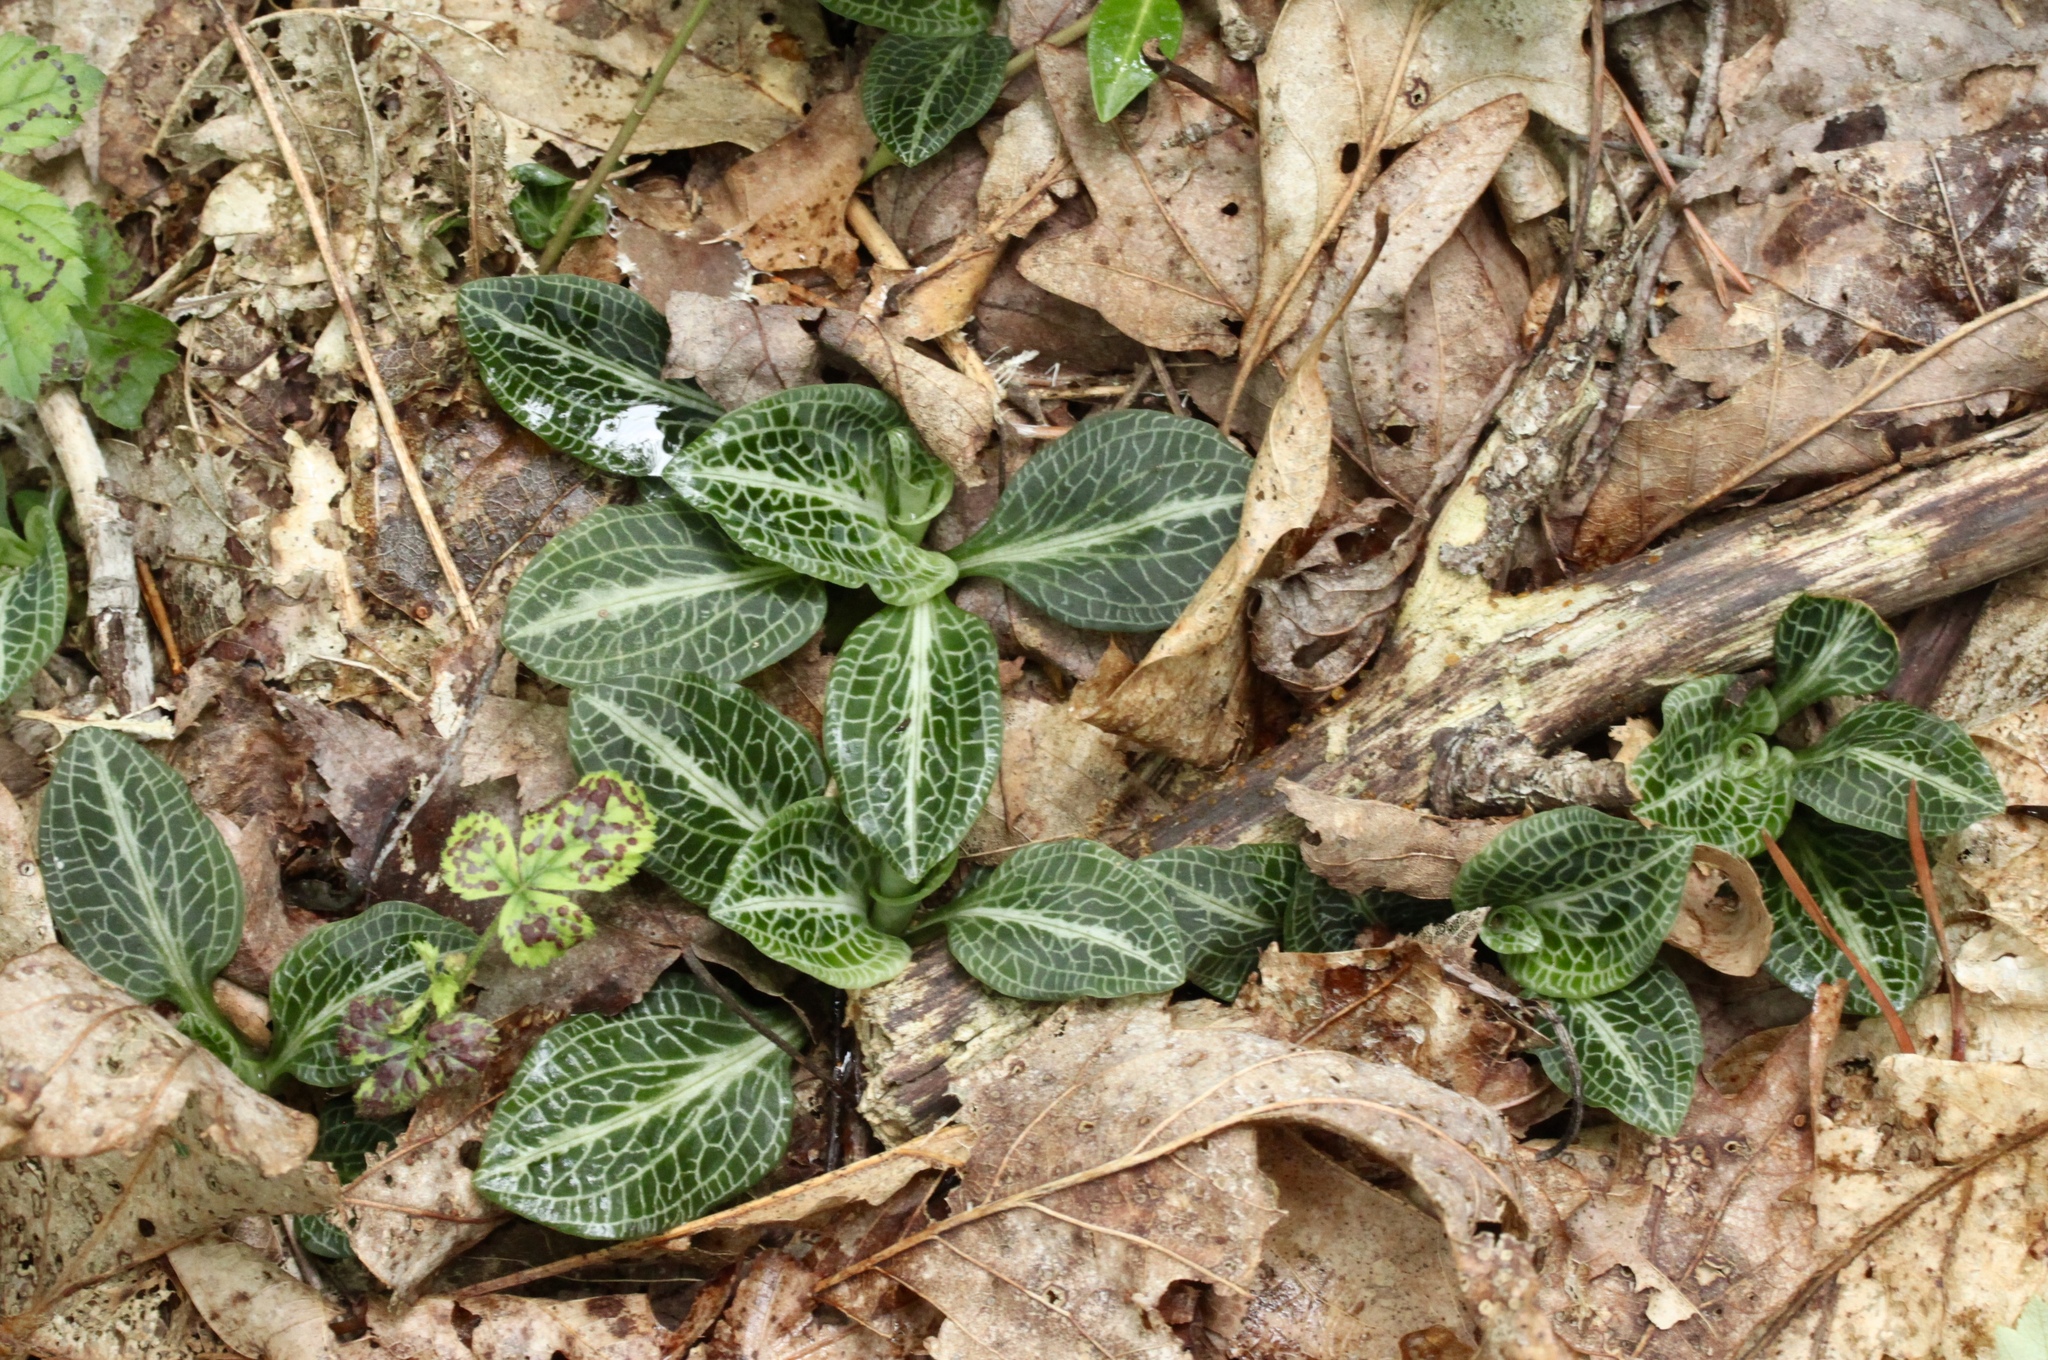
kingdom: Plantae
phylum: Tracheophyta
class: Liliopsida
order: Asparagales
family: Orchidaceae
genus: Goodyera
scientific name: Goodyera pubescens
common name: Downy rattlesnake-plantain
